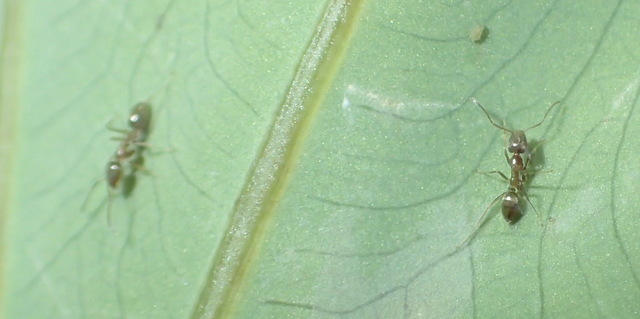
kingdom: Animalia
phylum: Arthropoda
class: Insecta
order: Hymenoptera
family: Formicidae
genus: Linepithema
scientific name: Linepithema humile
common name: Argentine ant
